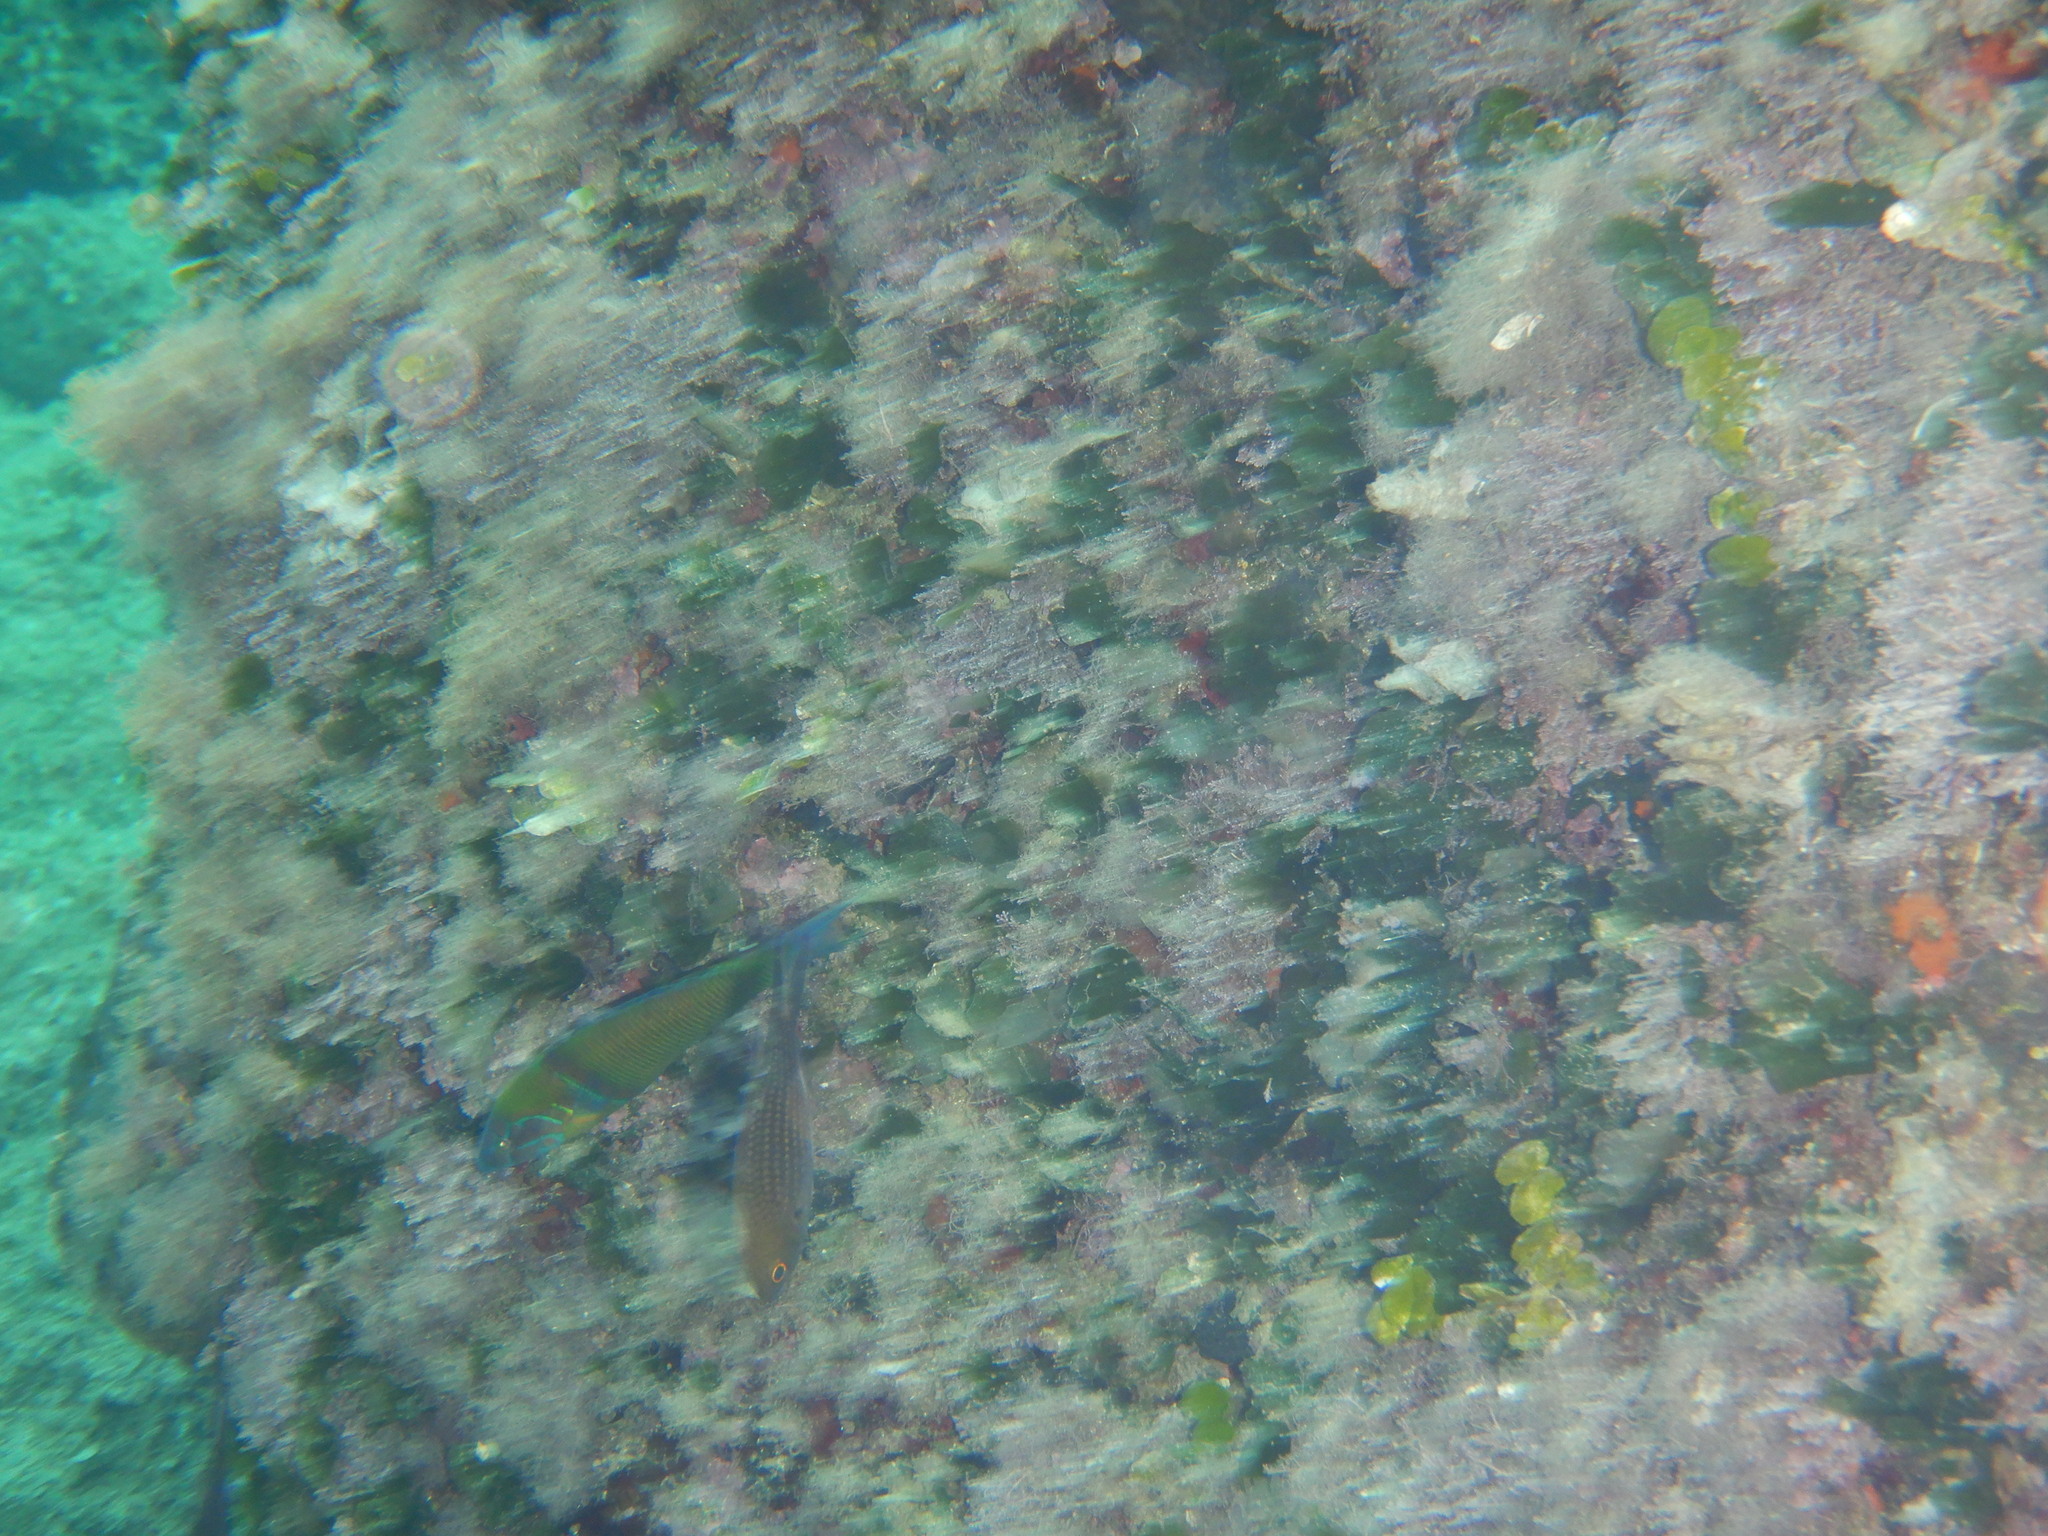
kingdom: Animalia
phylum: Chordata
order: Perciformes
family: Labridae
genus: Thalassoma
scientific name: Thalassoma pavo
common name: Ornate wrasse
